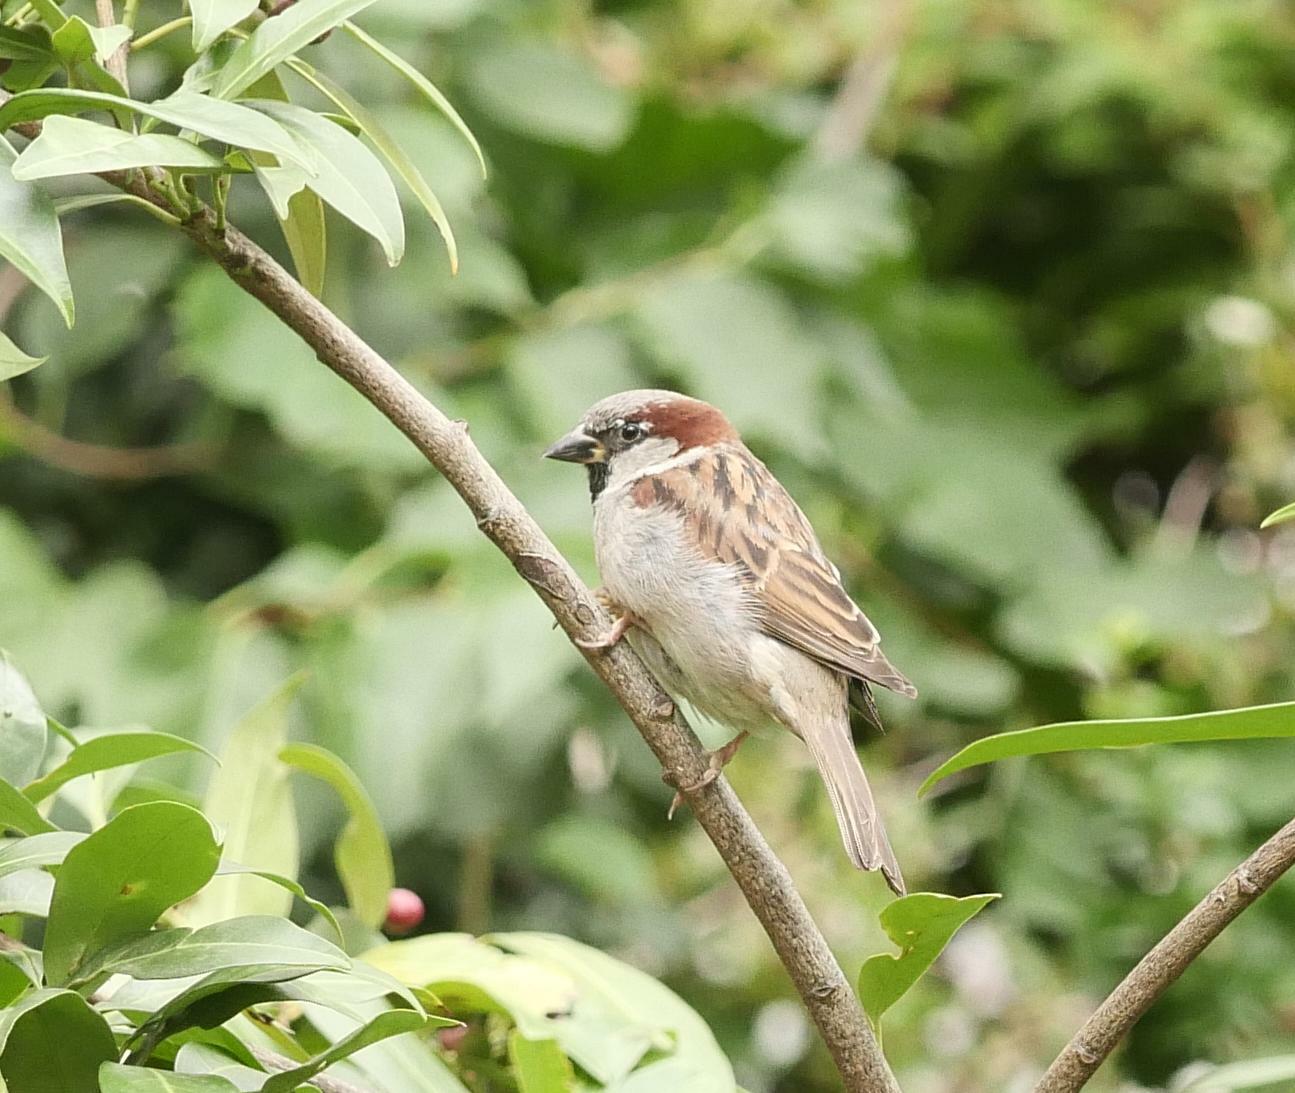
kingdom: Animalia
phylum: Chordata
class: Aves
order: Passeriformes
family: Passeridae
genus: Passer
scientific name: Passer domesticus
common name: House sparrow
